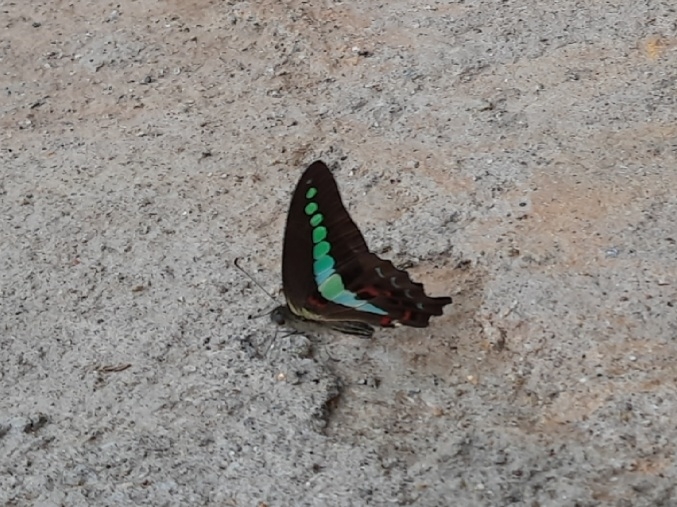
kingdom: Animalia
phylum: Arthropoda
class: Insecta
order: Lepidoptera
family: Papilionidae
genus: Graphium
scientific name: Graphium
